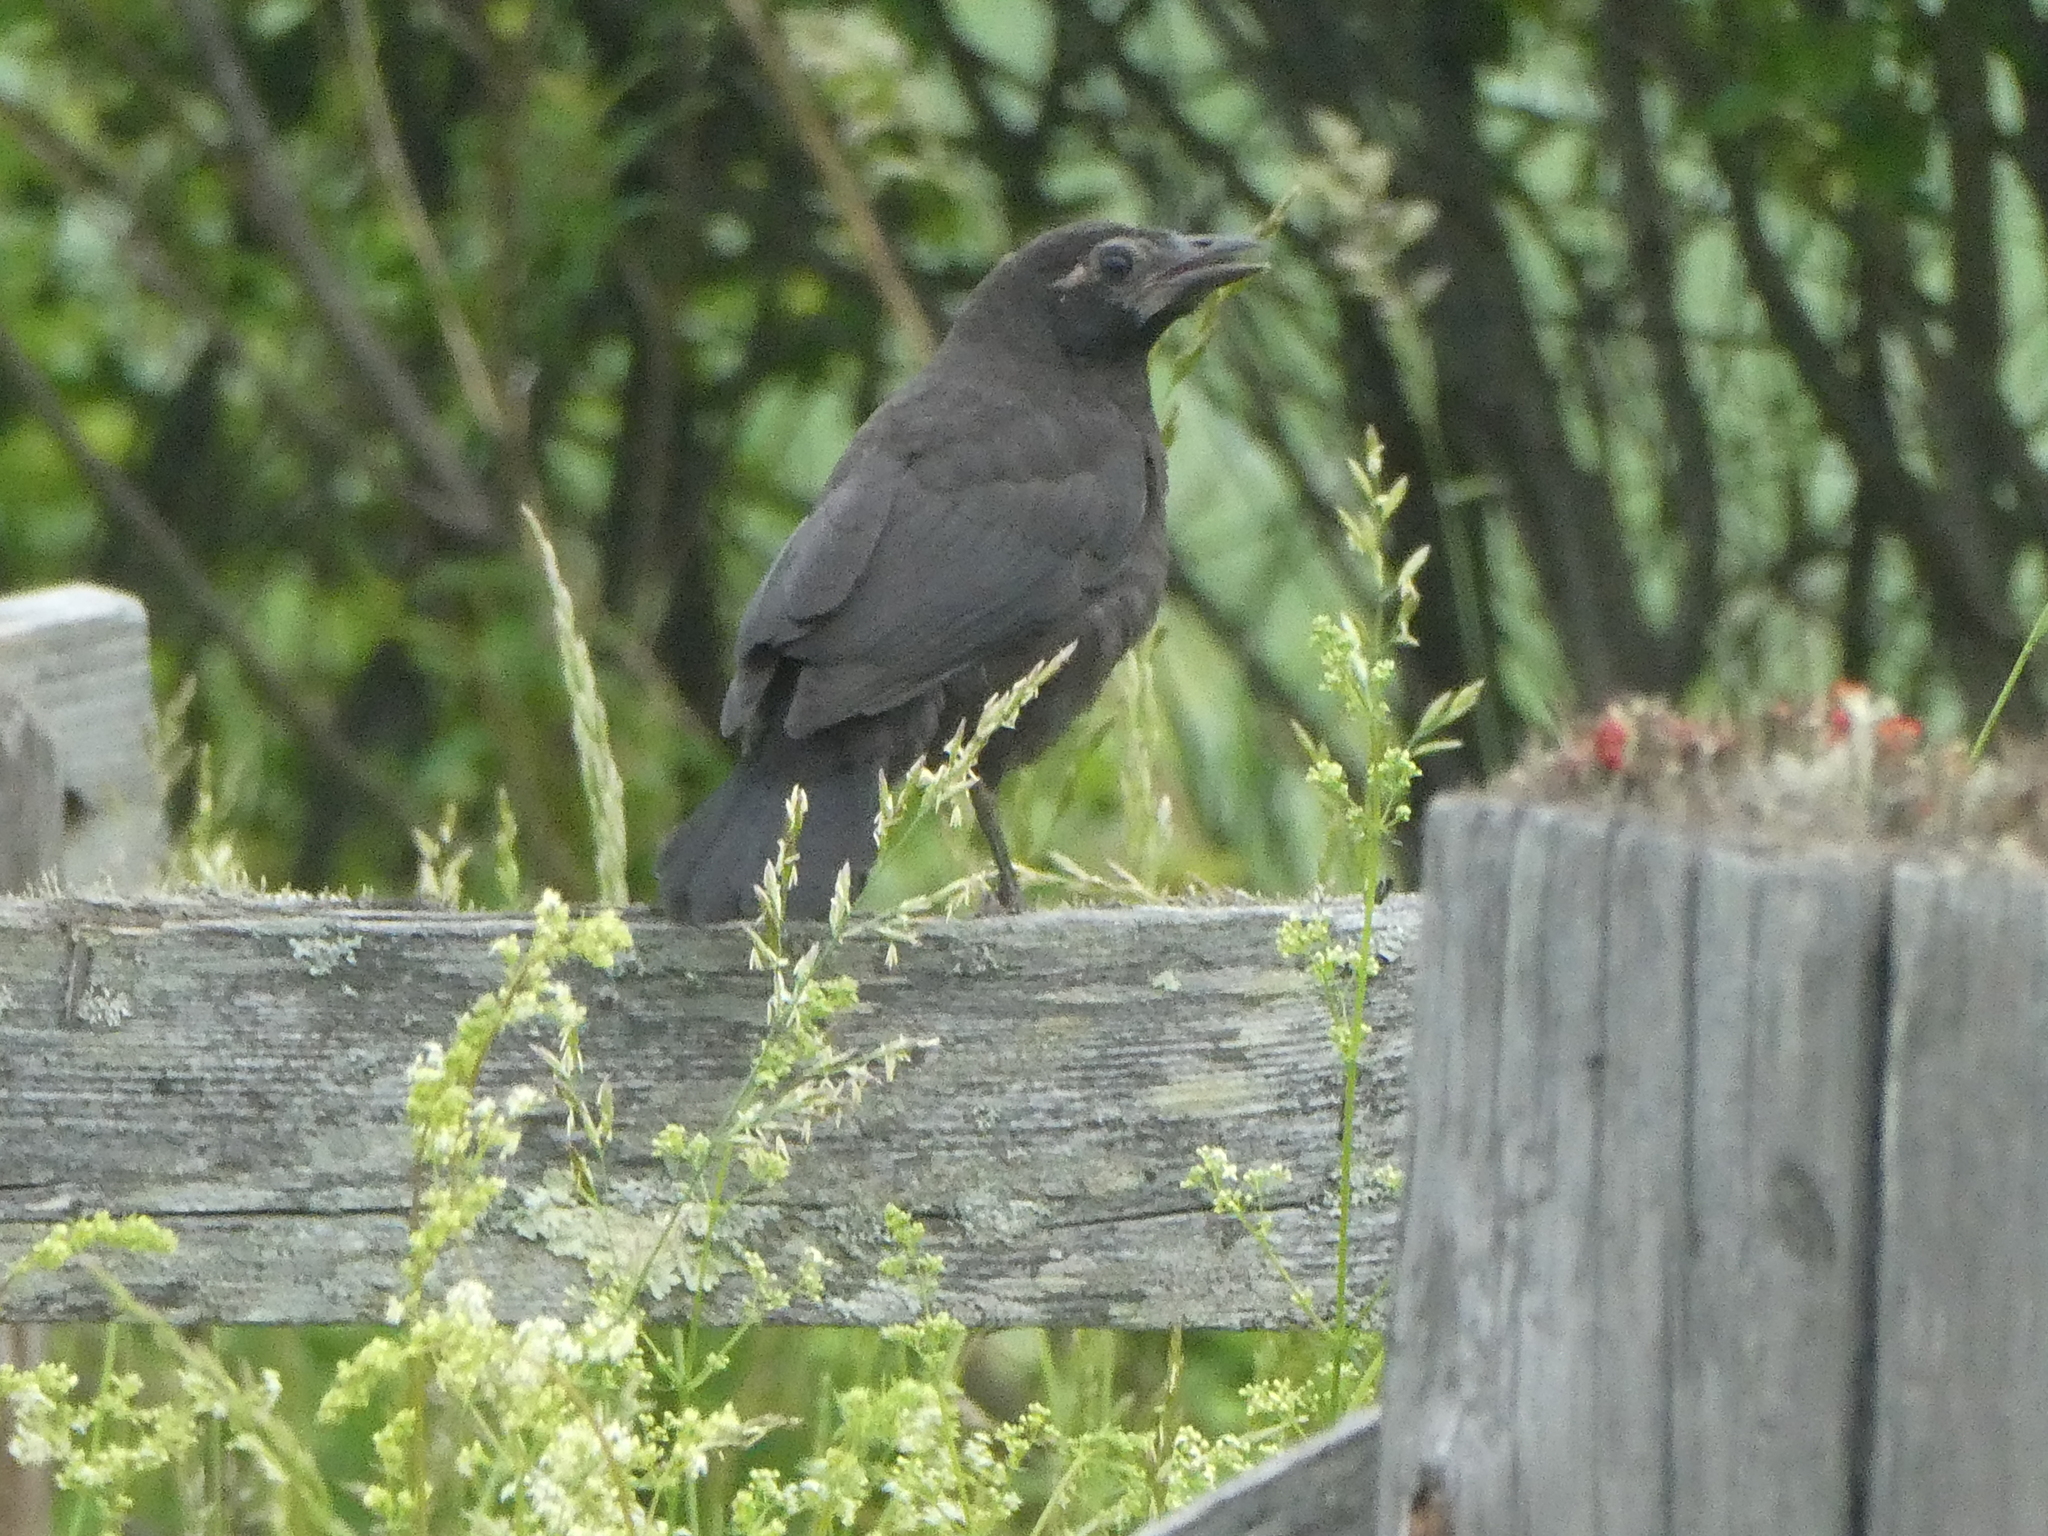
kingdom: Animalia
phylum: Chordata
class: Aves
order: Passeriformes
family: Icteridae
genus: Quiscalus
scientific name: Quiscalus quiscula
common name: Common grackle
